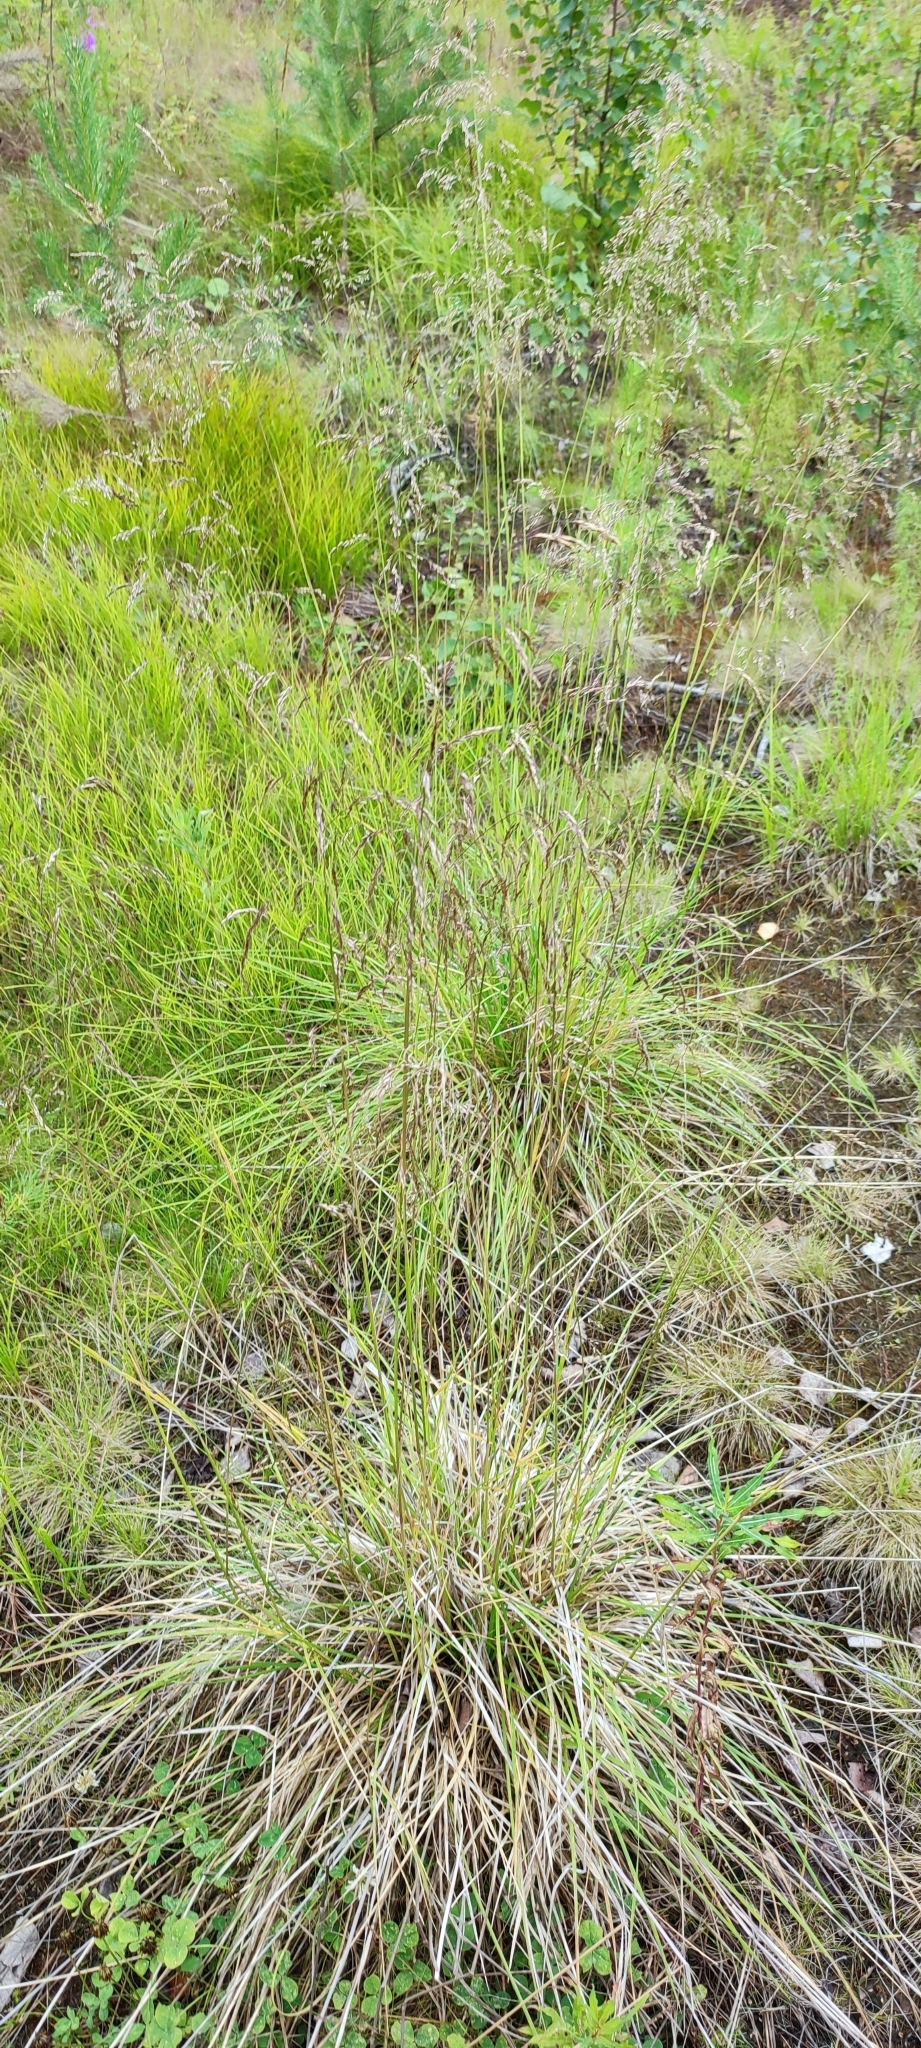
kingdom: Plantae
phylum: Tracheophyta
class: Liliopsida
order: Poales
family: Poaceae
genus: Deschampsia
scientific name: Deschampsia cespitosa
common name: Tufted hair-grass
